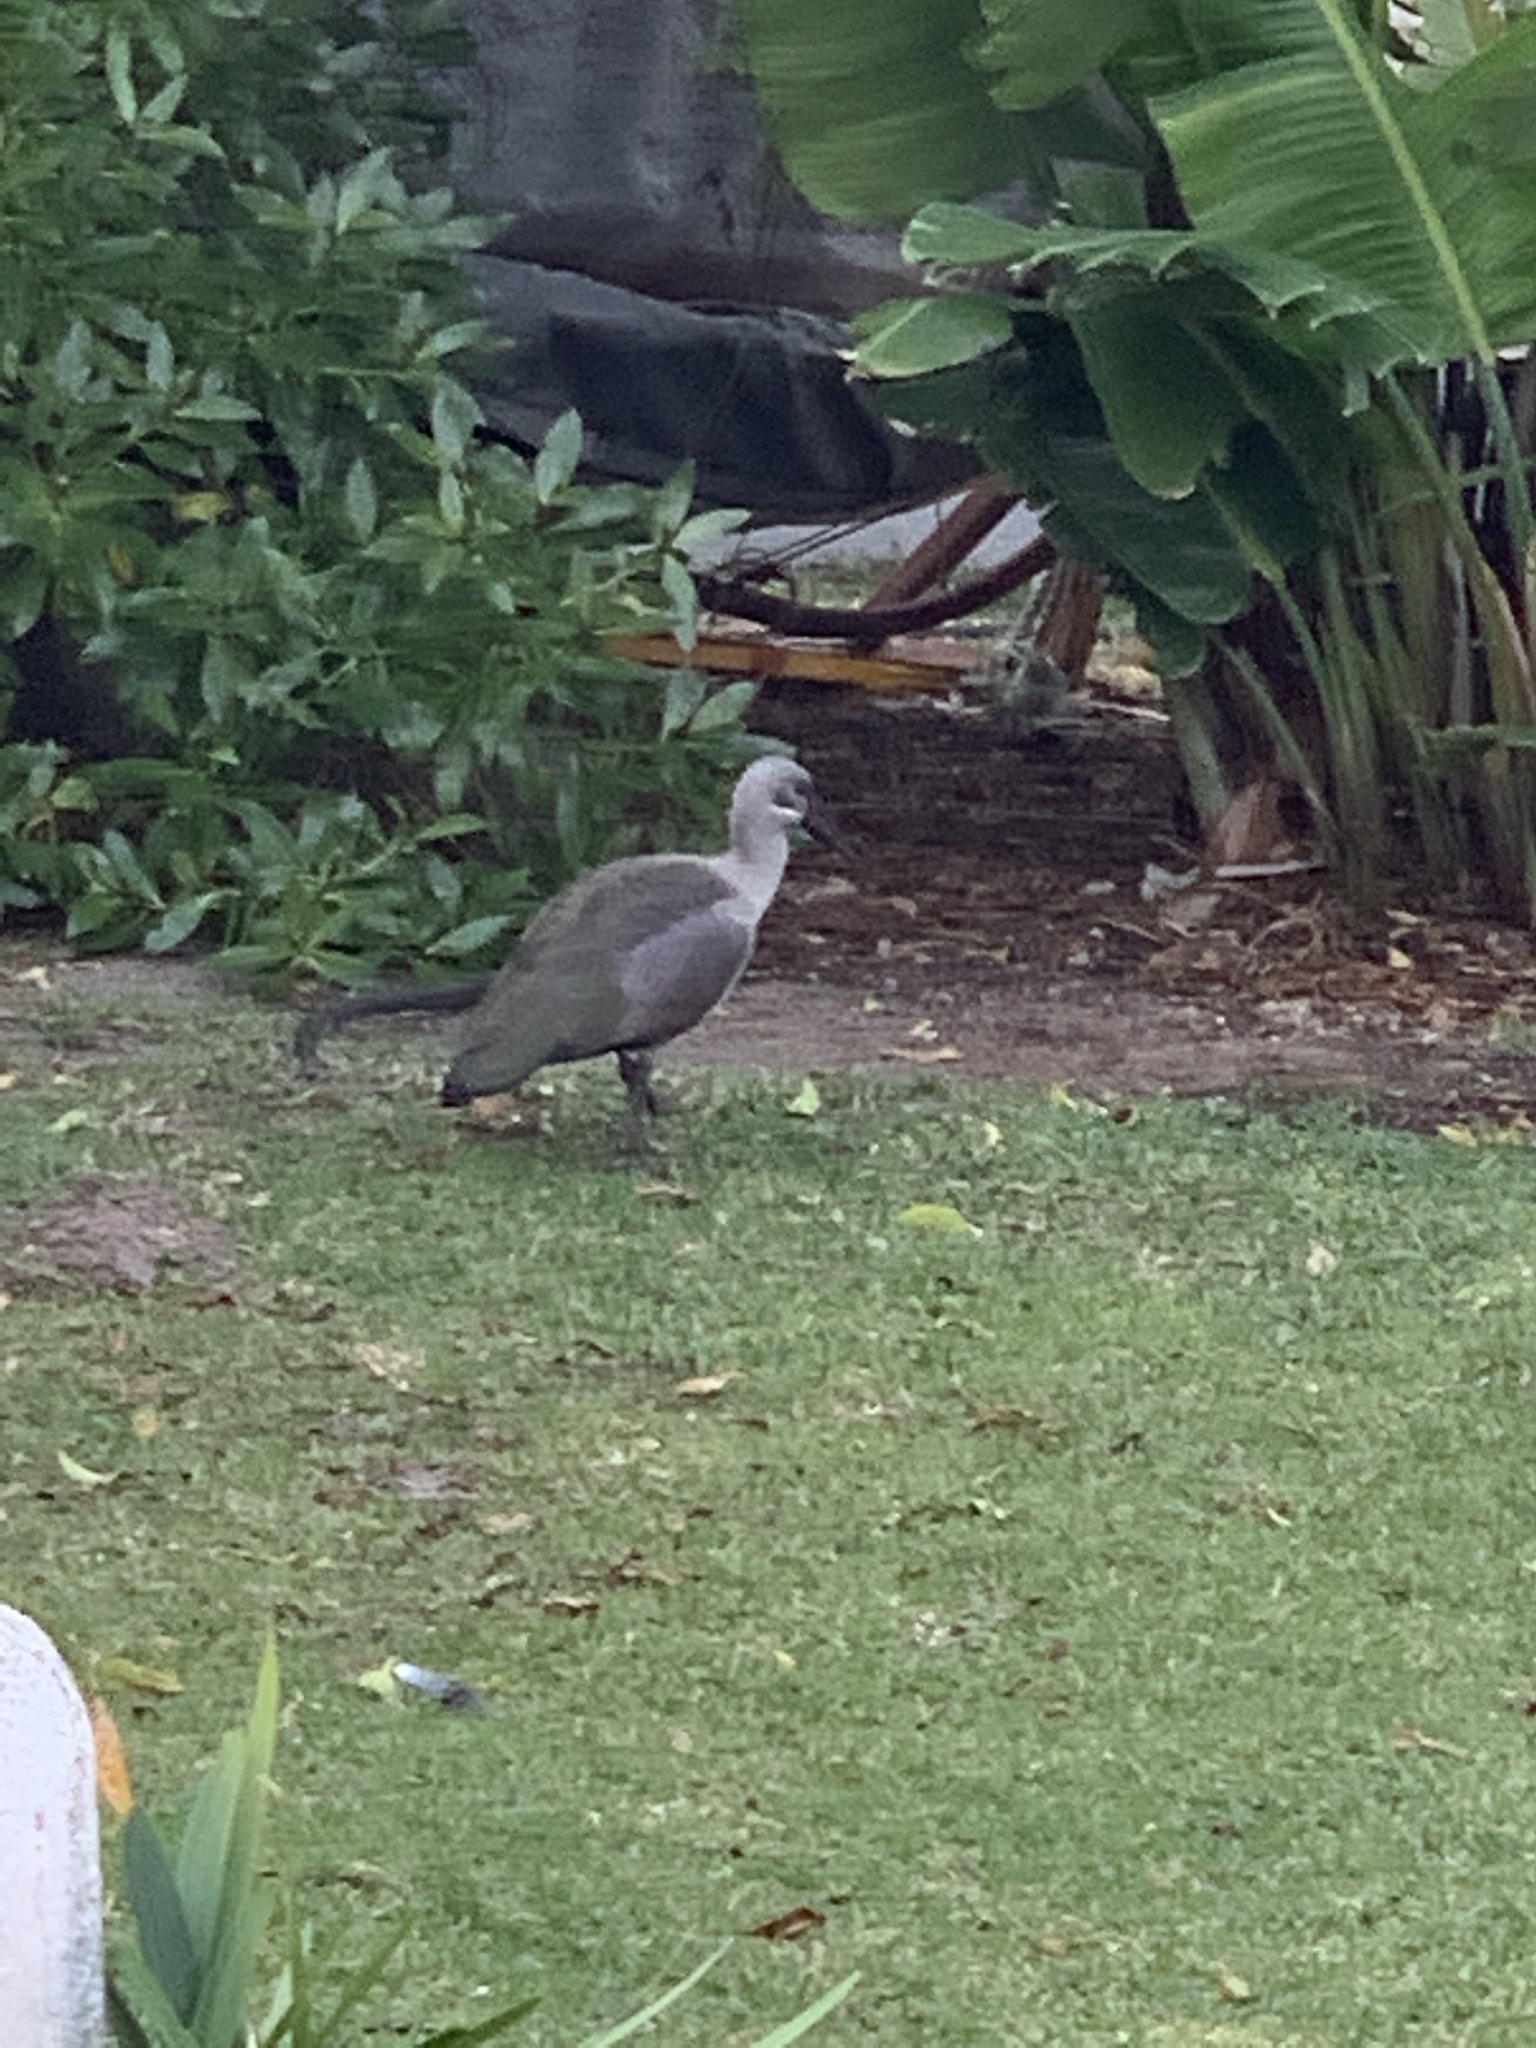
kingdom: Animalia
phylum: Chordata
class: Aves
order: Pelecaniformes
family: Threskiornithidae
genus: Bostrychia
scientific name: Bostrychia hagedash
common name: Hadada ibis
